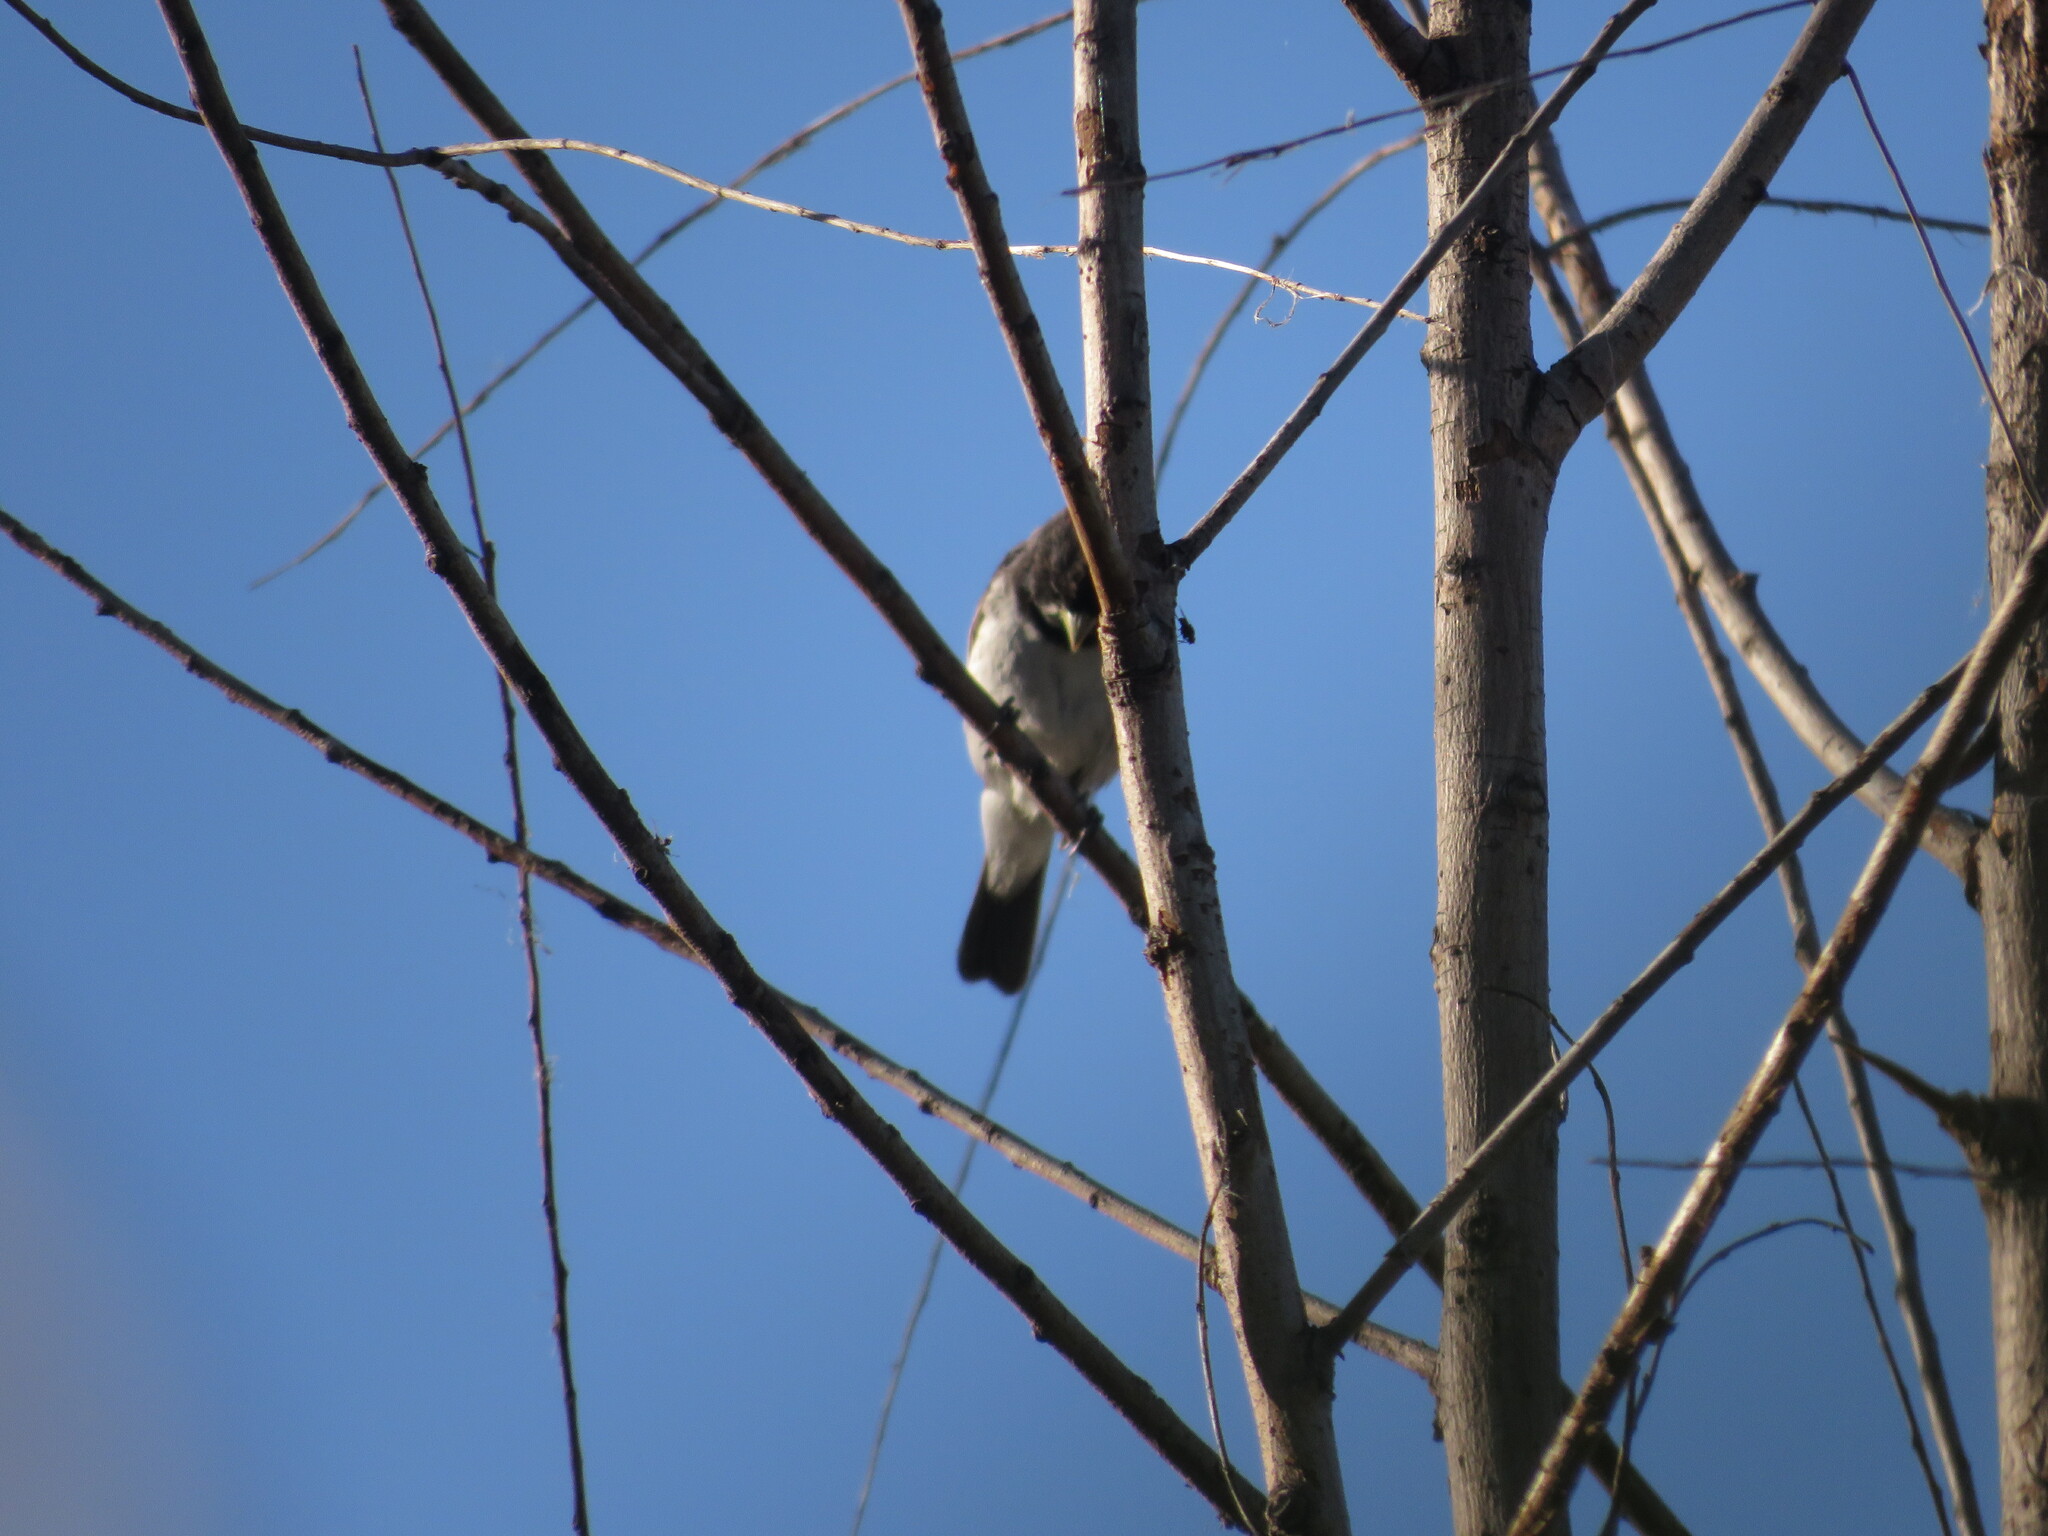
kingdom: Animalia
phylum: Chordata
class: Aves
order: Passeriformes
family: Thraupidae
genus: Sporophila
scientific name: Sporophila caerulescens
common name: Double-collared seedeater
